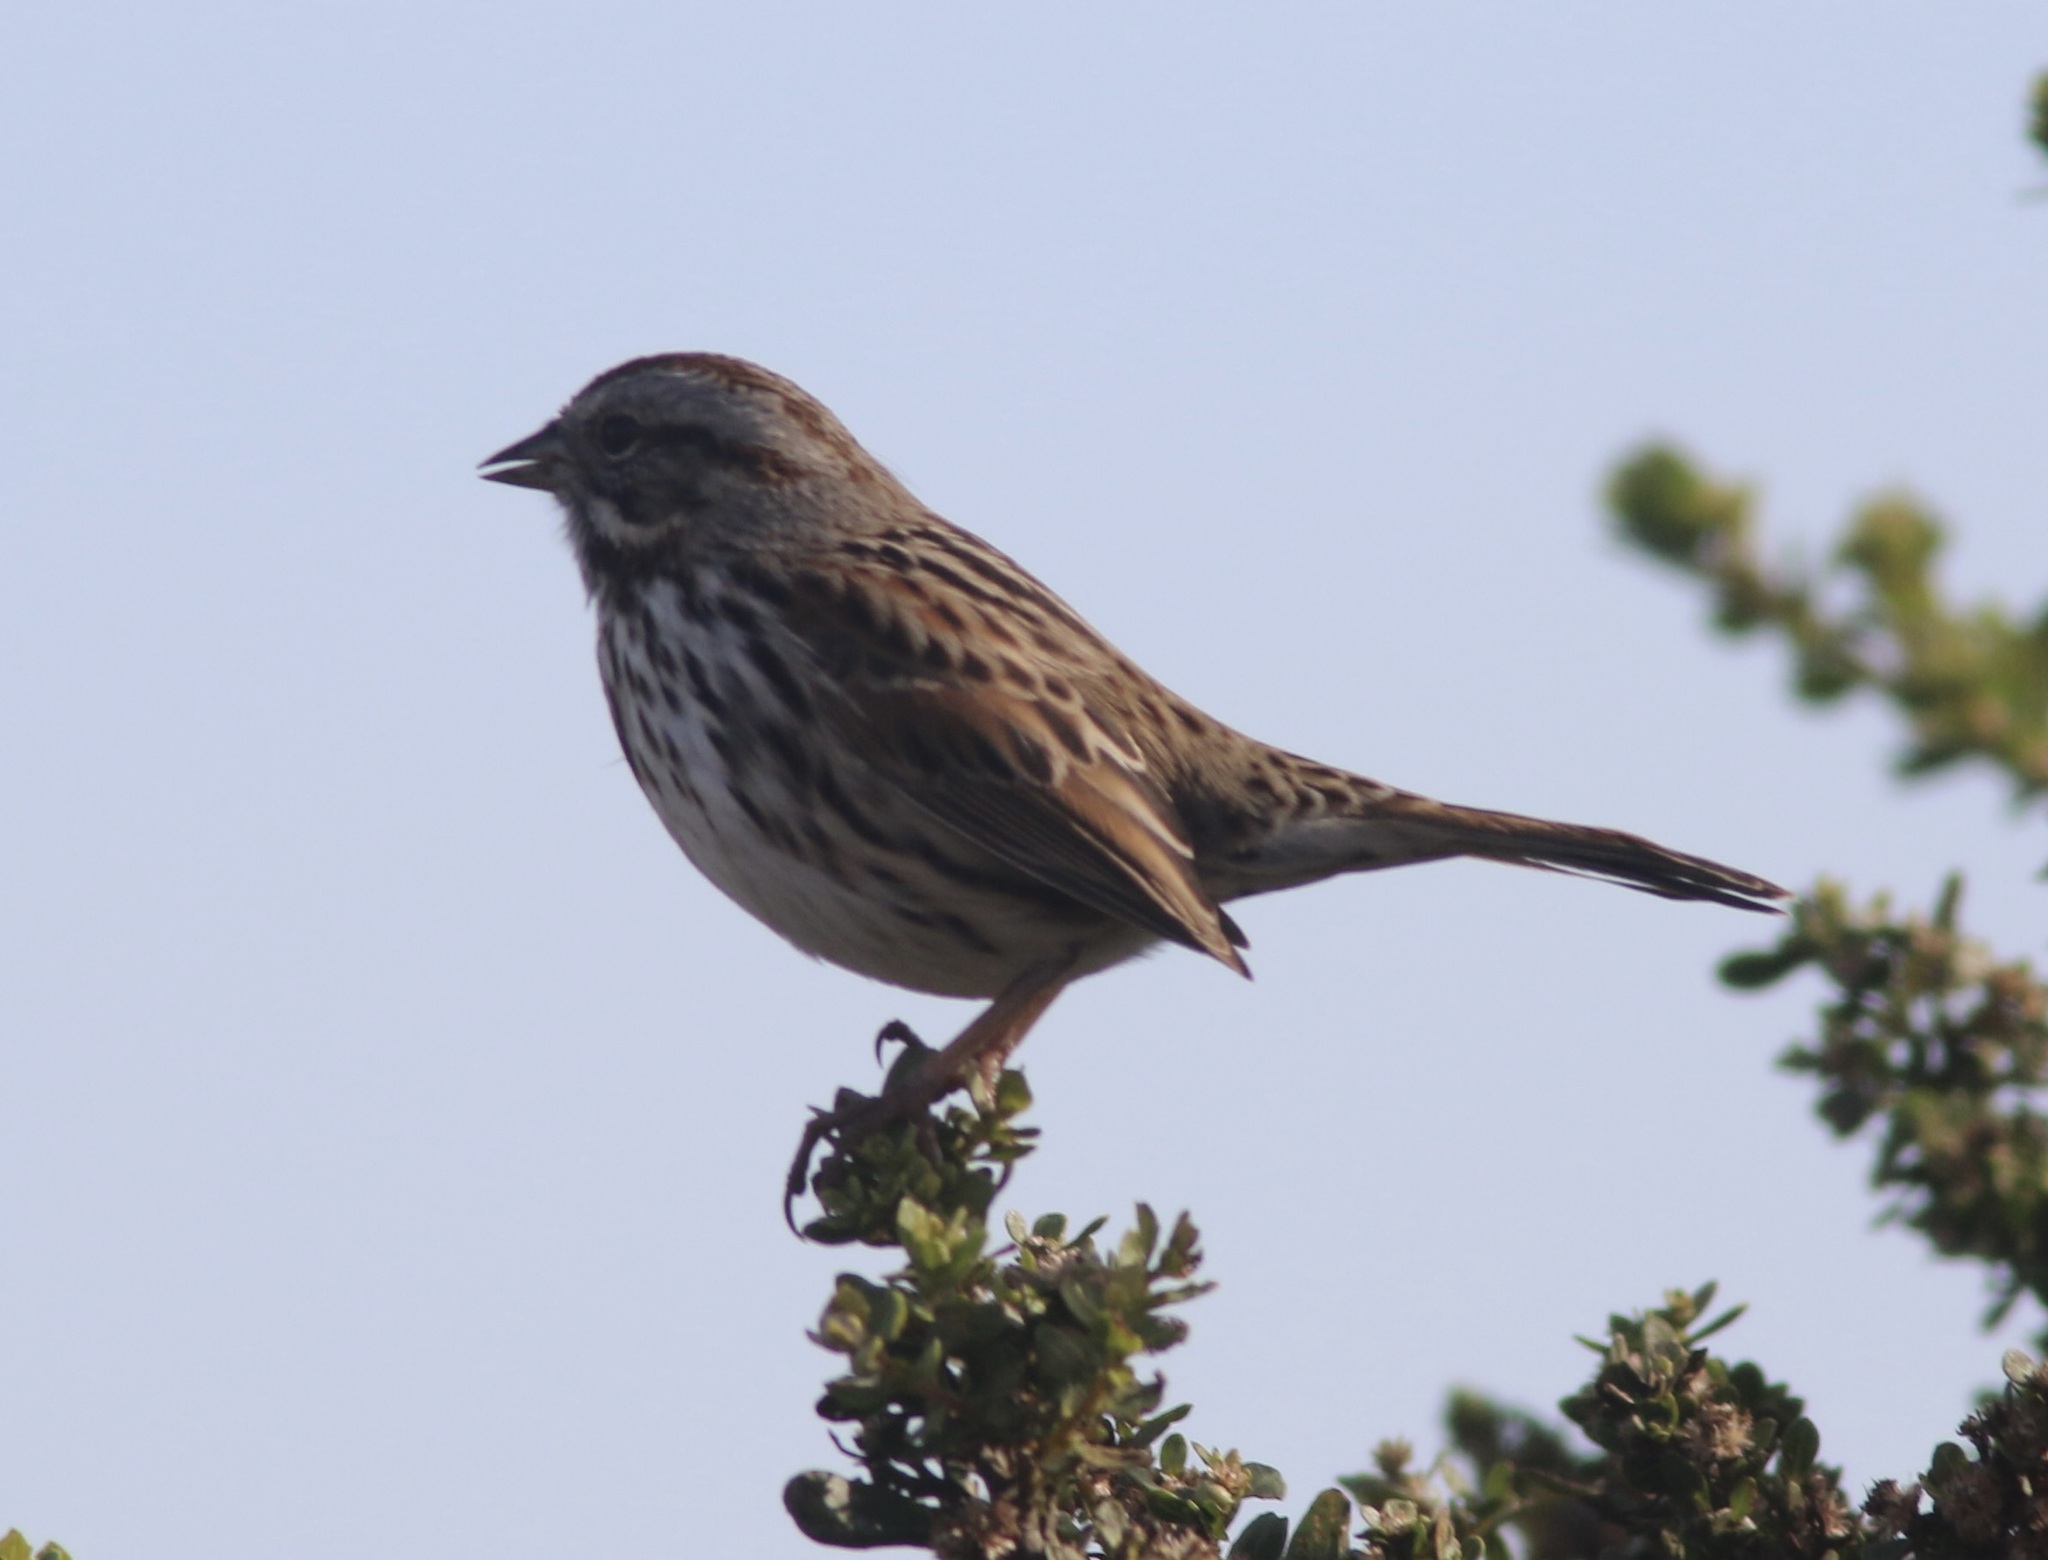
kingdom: Animalia
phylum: Chordata
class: Aves
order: Passeriformes
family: Passerellidae
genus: Melospiza
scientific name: Melospiza melodia
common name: Song sparrow
